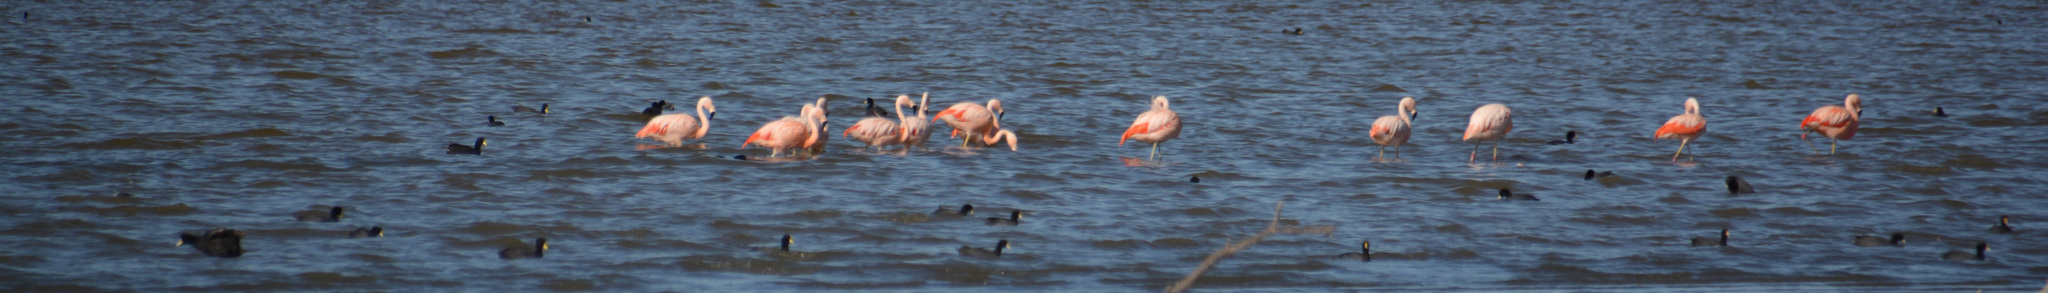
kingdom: Animalia
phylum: Chordata
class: Aves
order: Phoenicopteriformes
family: Phoenicopteridae
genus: Phoenicopterus
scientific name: Phoenicopterus chilensis
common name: Chilean flamingo
